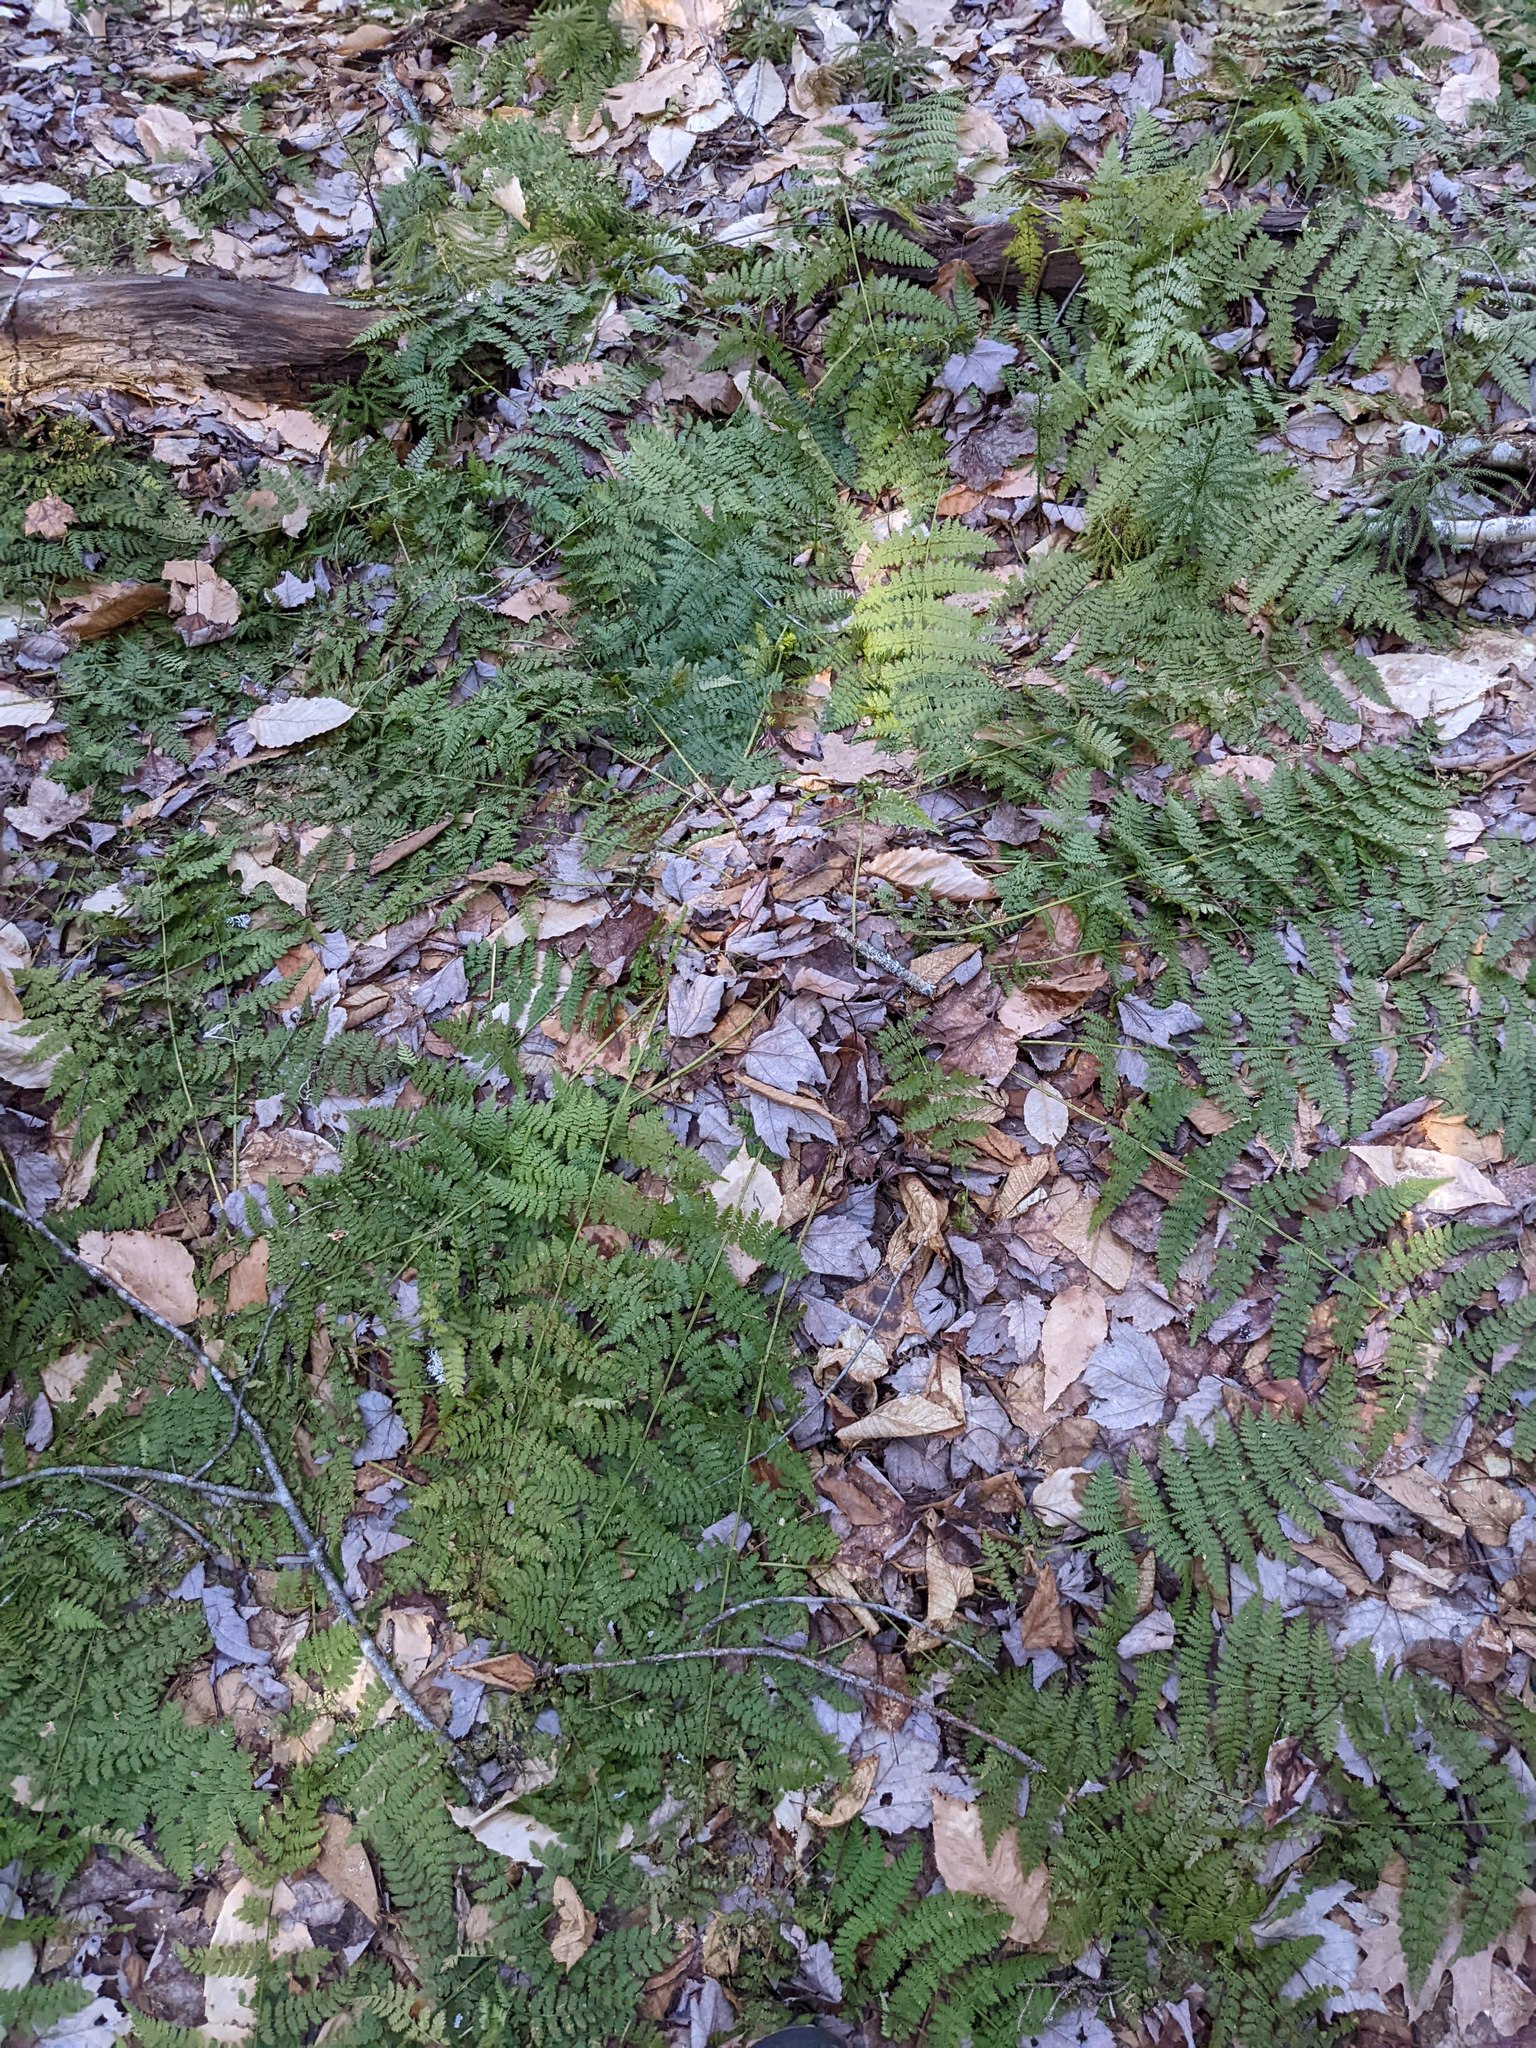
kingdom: Plantae
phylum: Tracheophyta
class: Polypodiopsida
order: Polypodiales
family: Dryopteridaceae
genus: Dryopteris
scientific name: Dryopteris intermedia
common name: Evergreen wood fern
